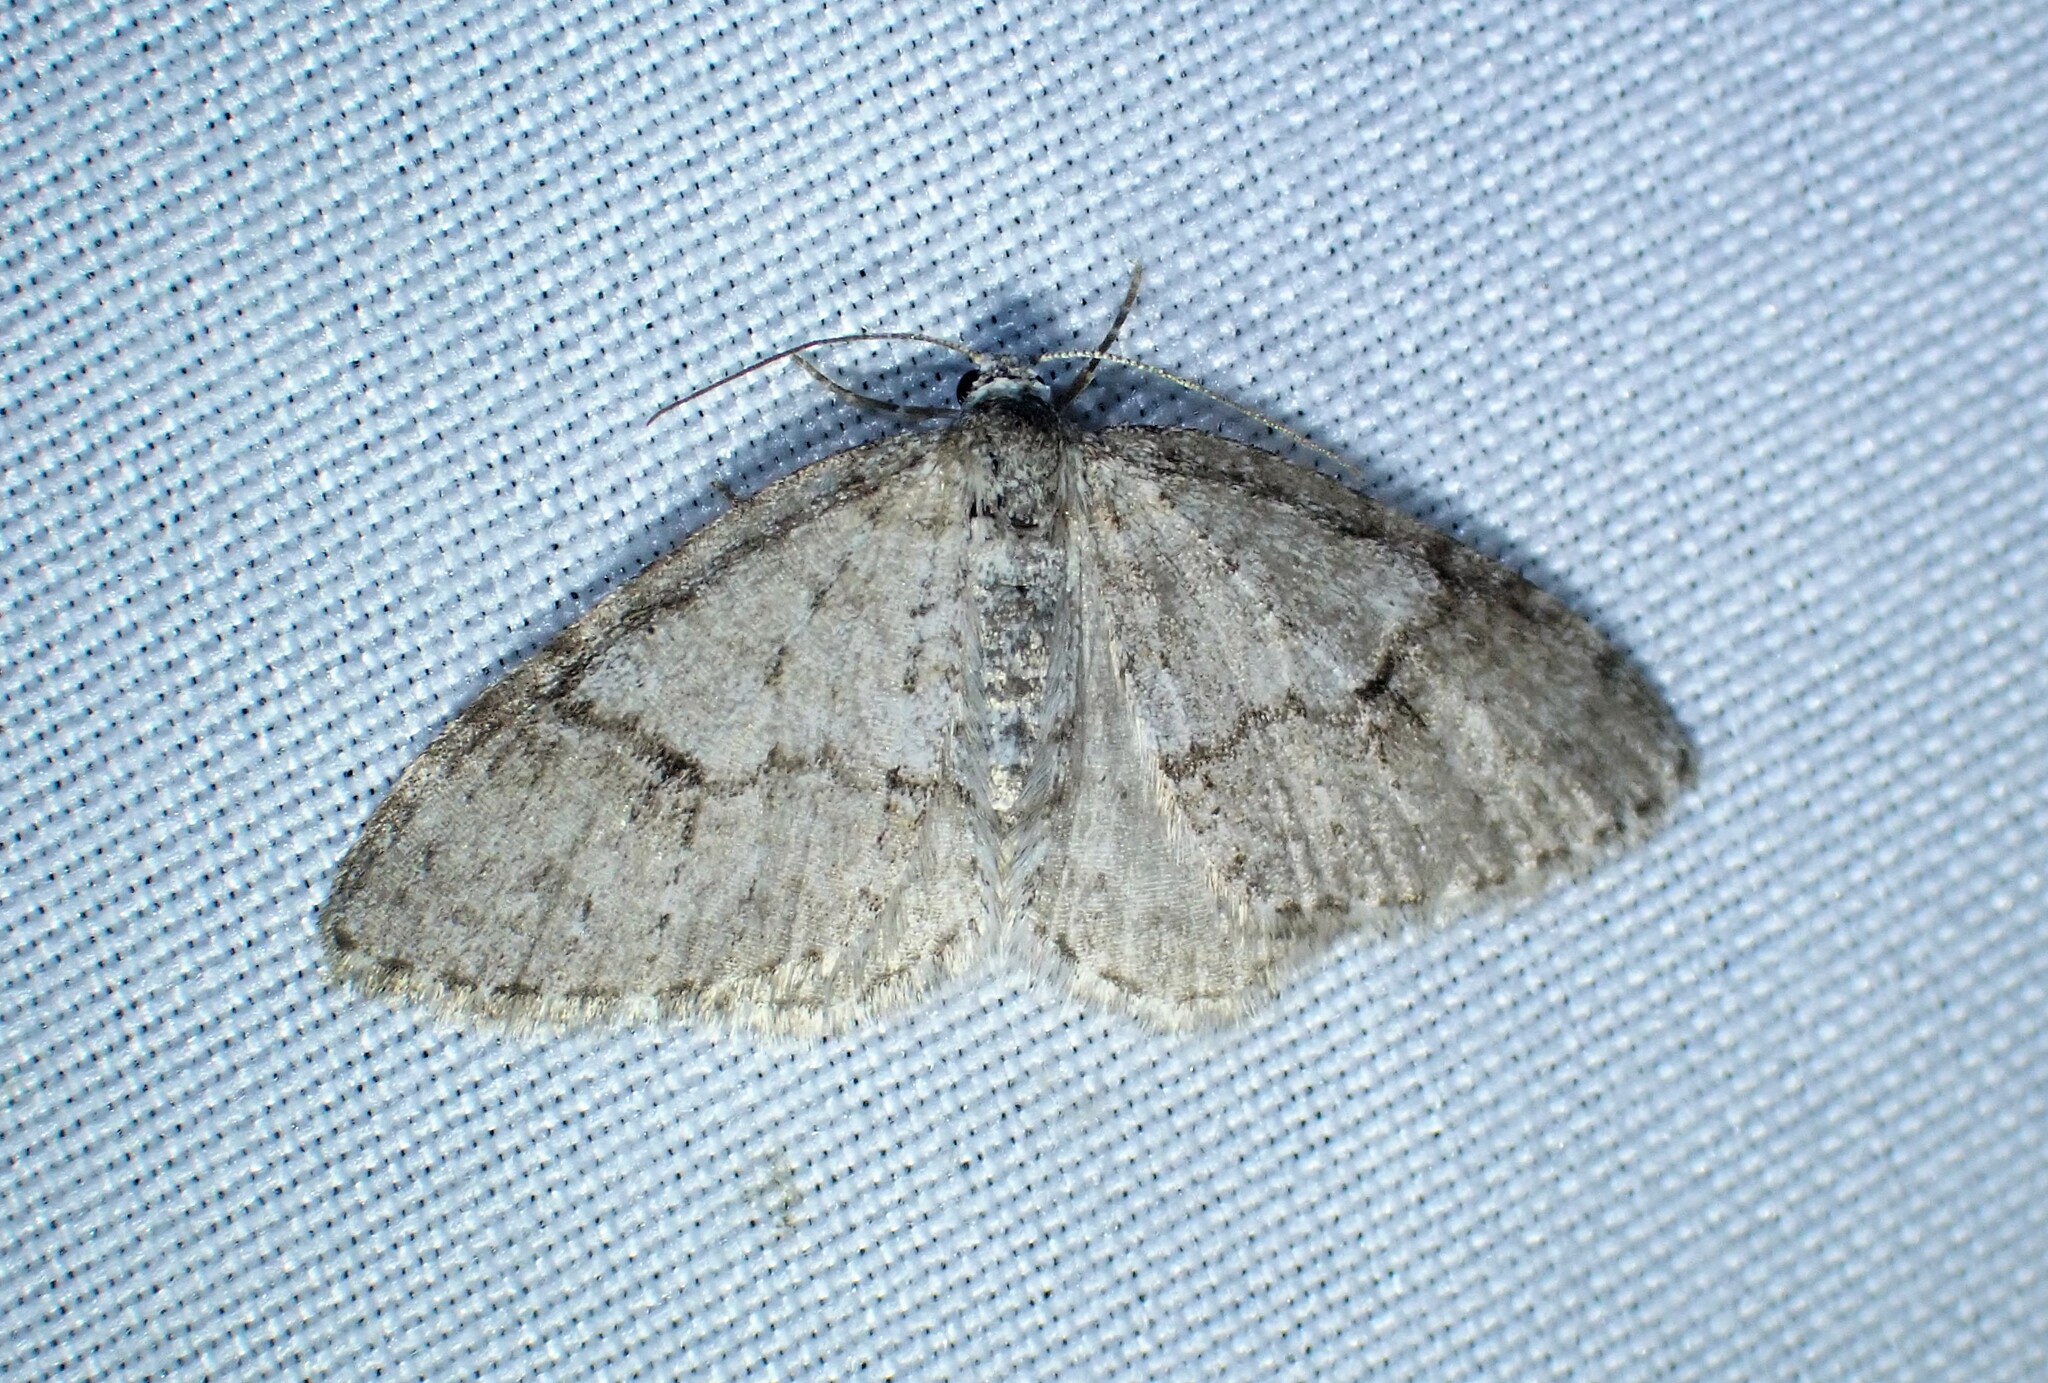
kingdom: Animalia
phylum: Arthropoda
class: Insecta
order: Lepidoptera
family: Geometridae
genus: Venusia
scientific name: Venusia comptaria
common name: Brown-shaded carpet
